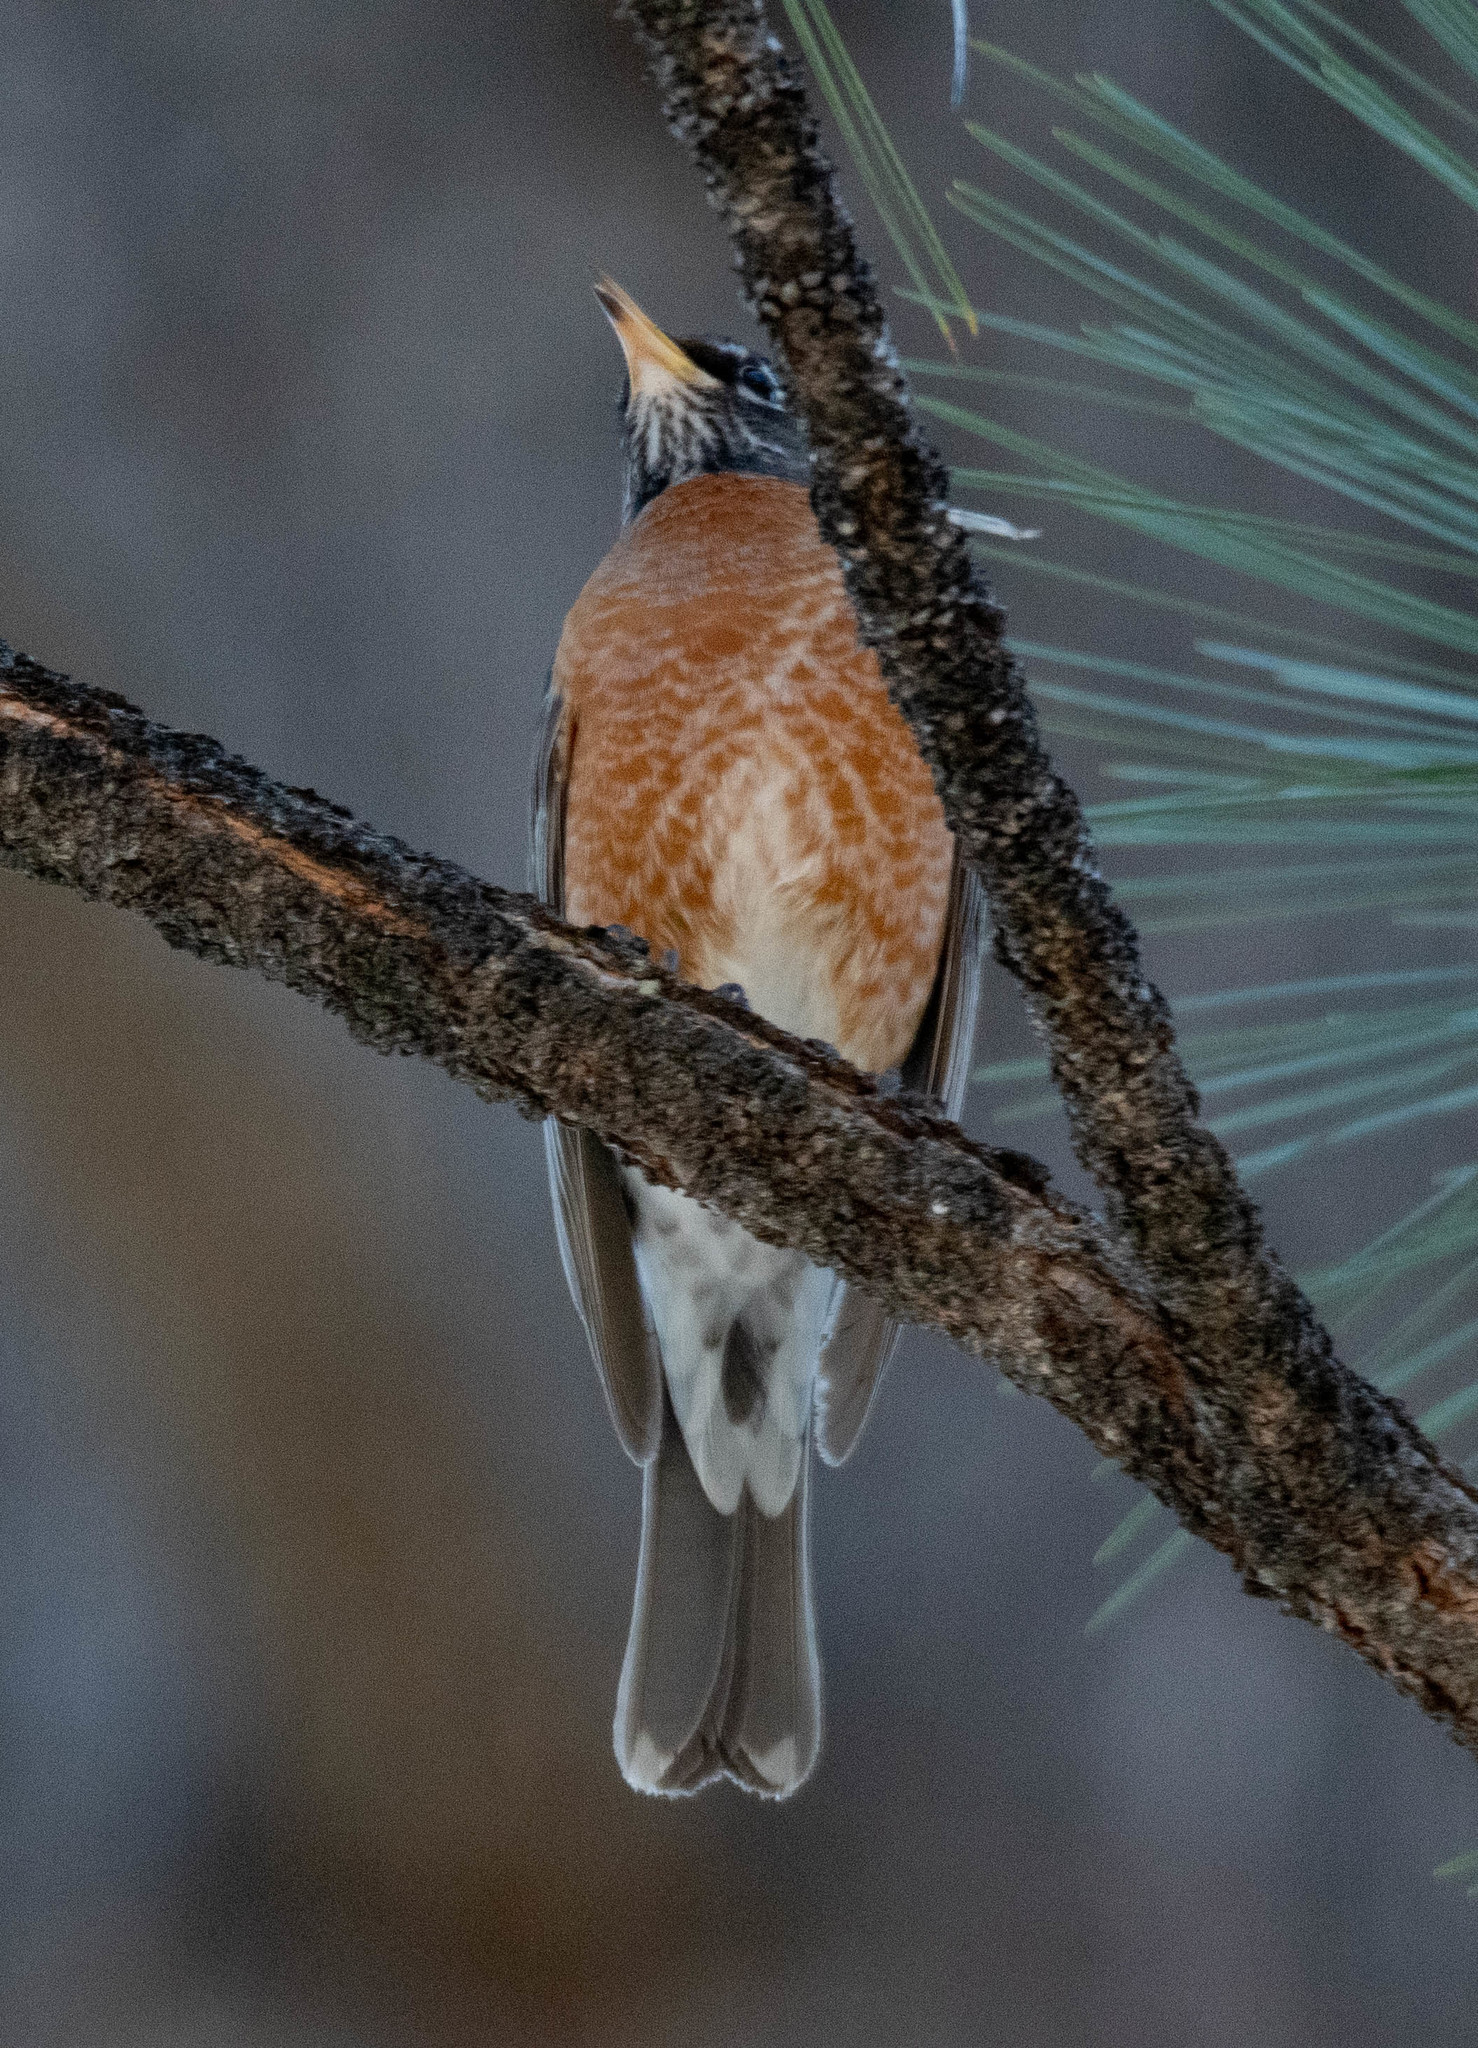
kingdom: Animalia
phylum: Chordata
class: Aves
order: Passeriformes
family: Turdidae
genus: Turdus
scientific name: Turdus migratorius
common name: American robin
